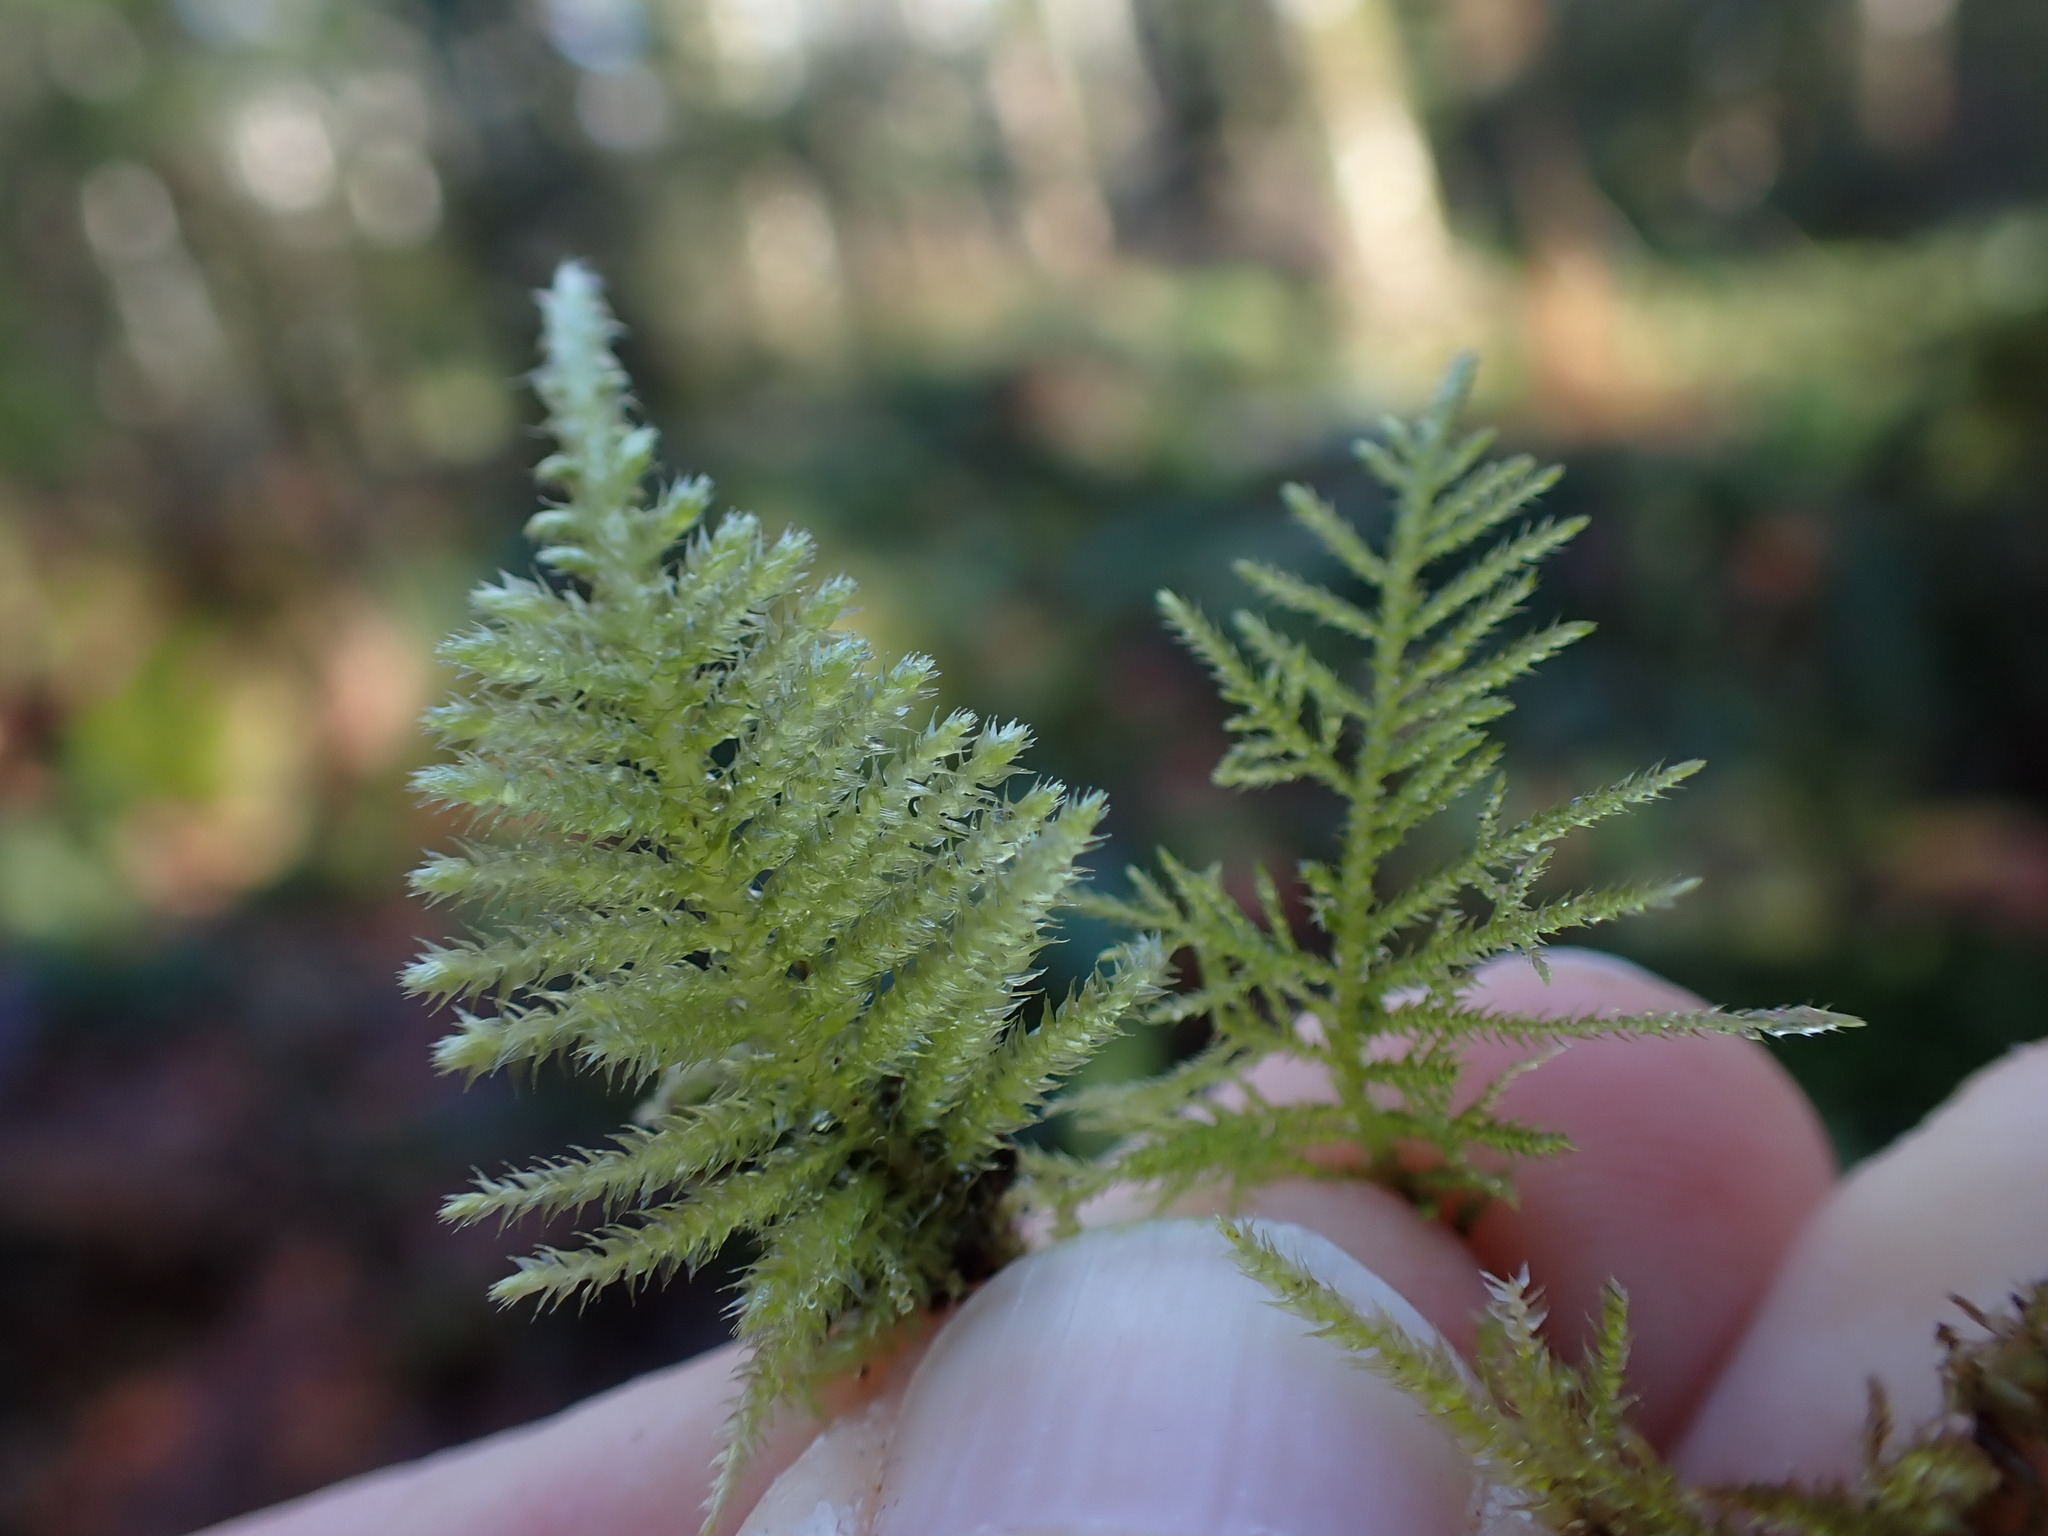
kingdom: Plantae
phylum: Bryophyta
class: Bryopsida
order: Hypnales
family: Brachytheciaceae
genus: Kindbergia
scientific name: Kindbergia praelonga
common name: Slender beaked moss
